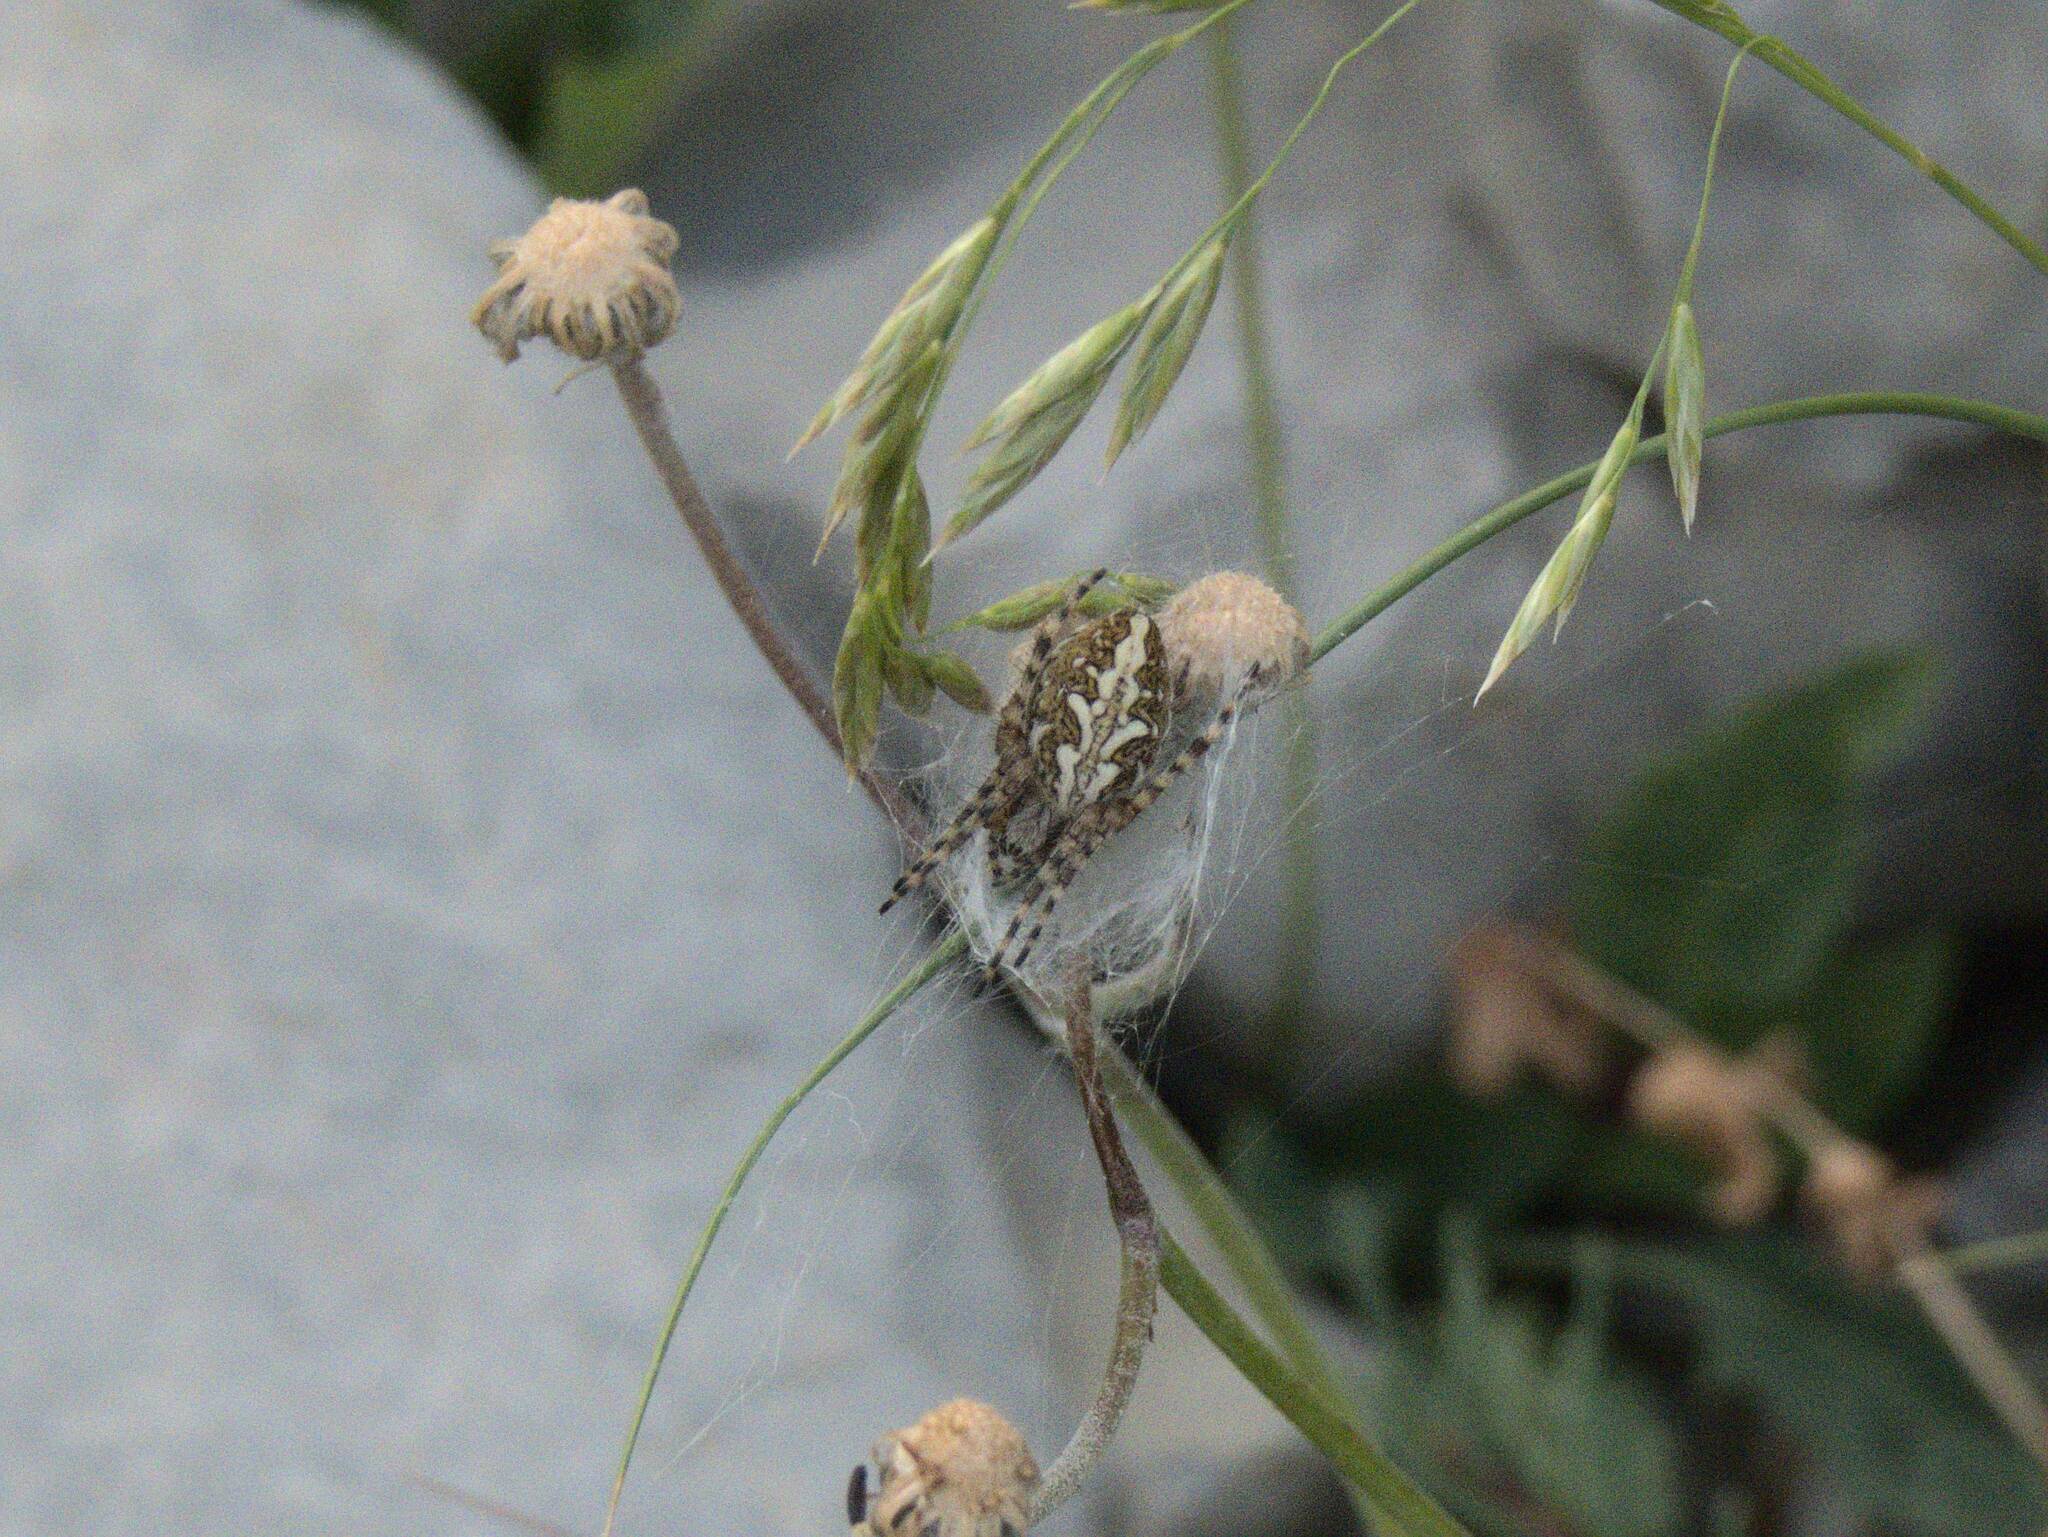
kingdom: Animalia
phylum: Arthropoda
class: Arachnida
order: Araneae
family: Araneidae
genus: Aculepeira
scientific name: Aculepeira ceropegia
